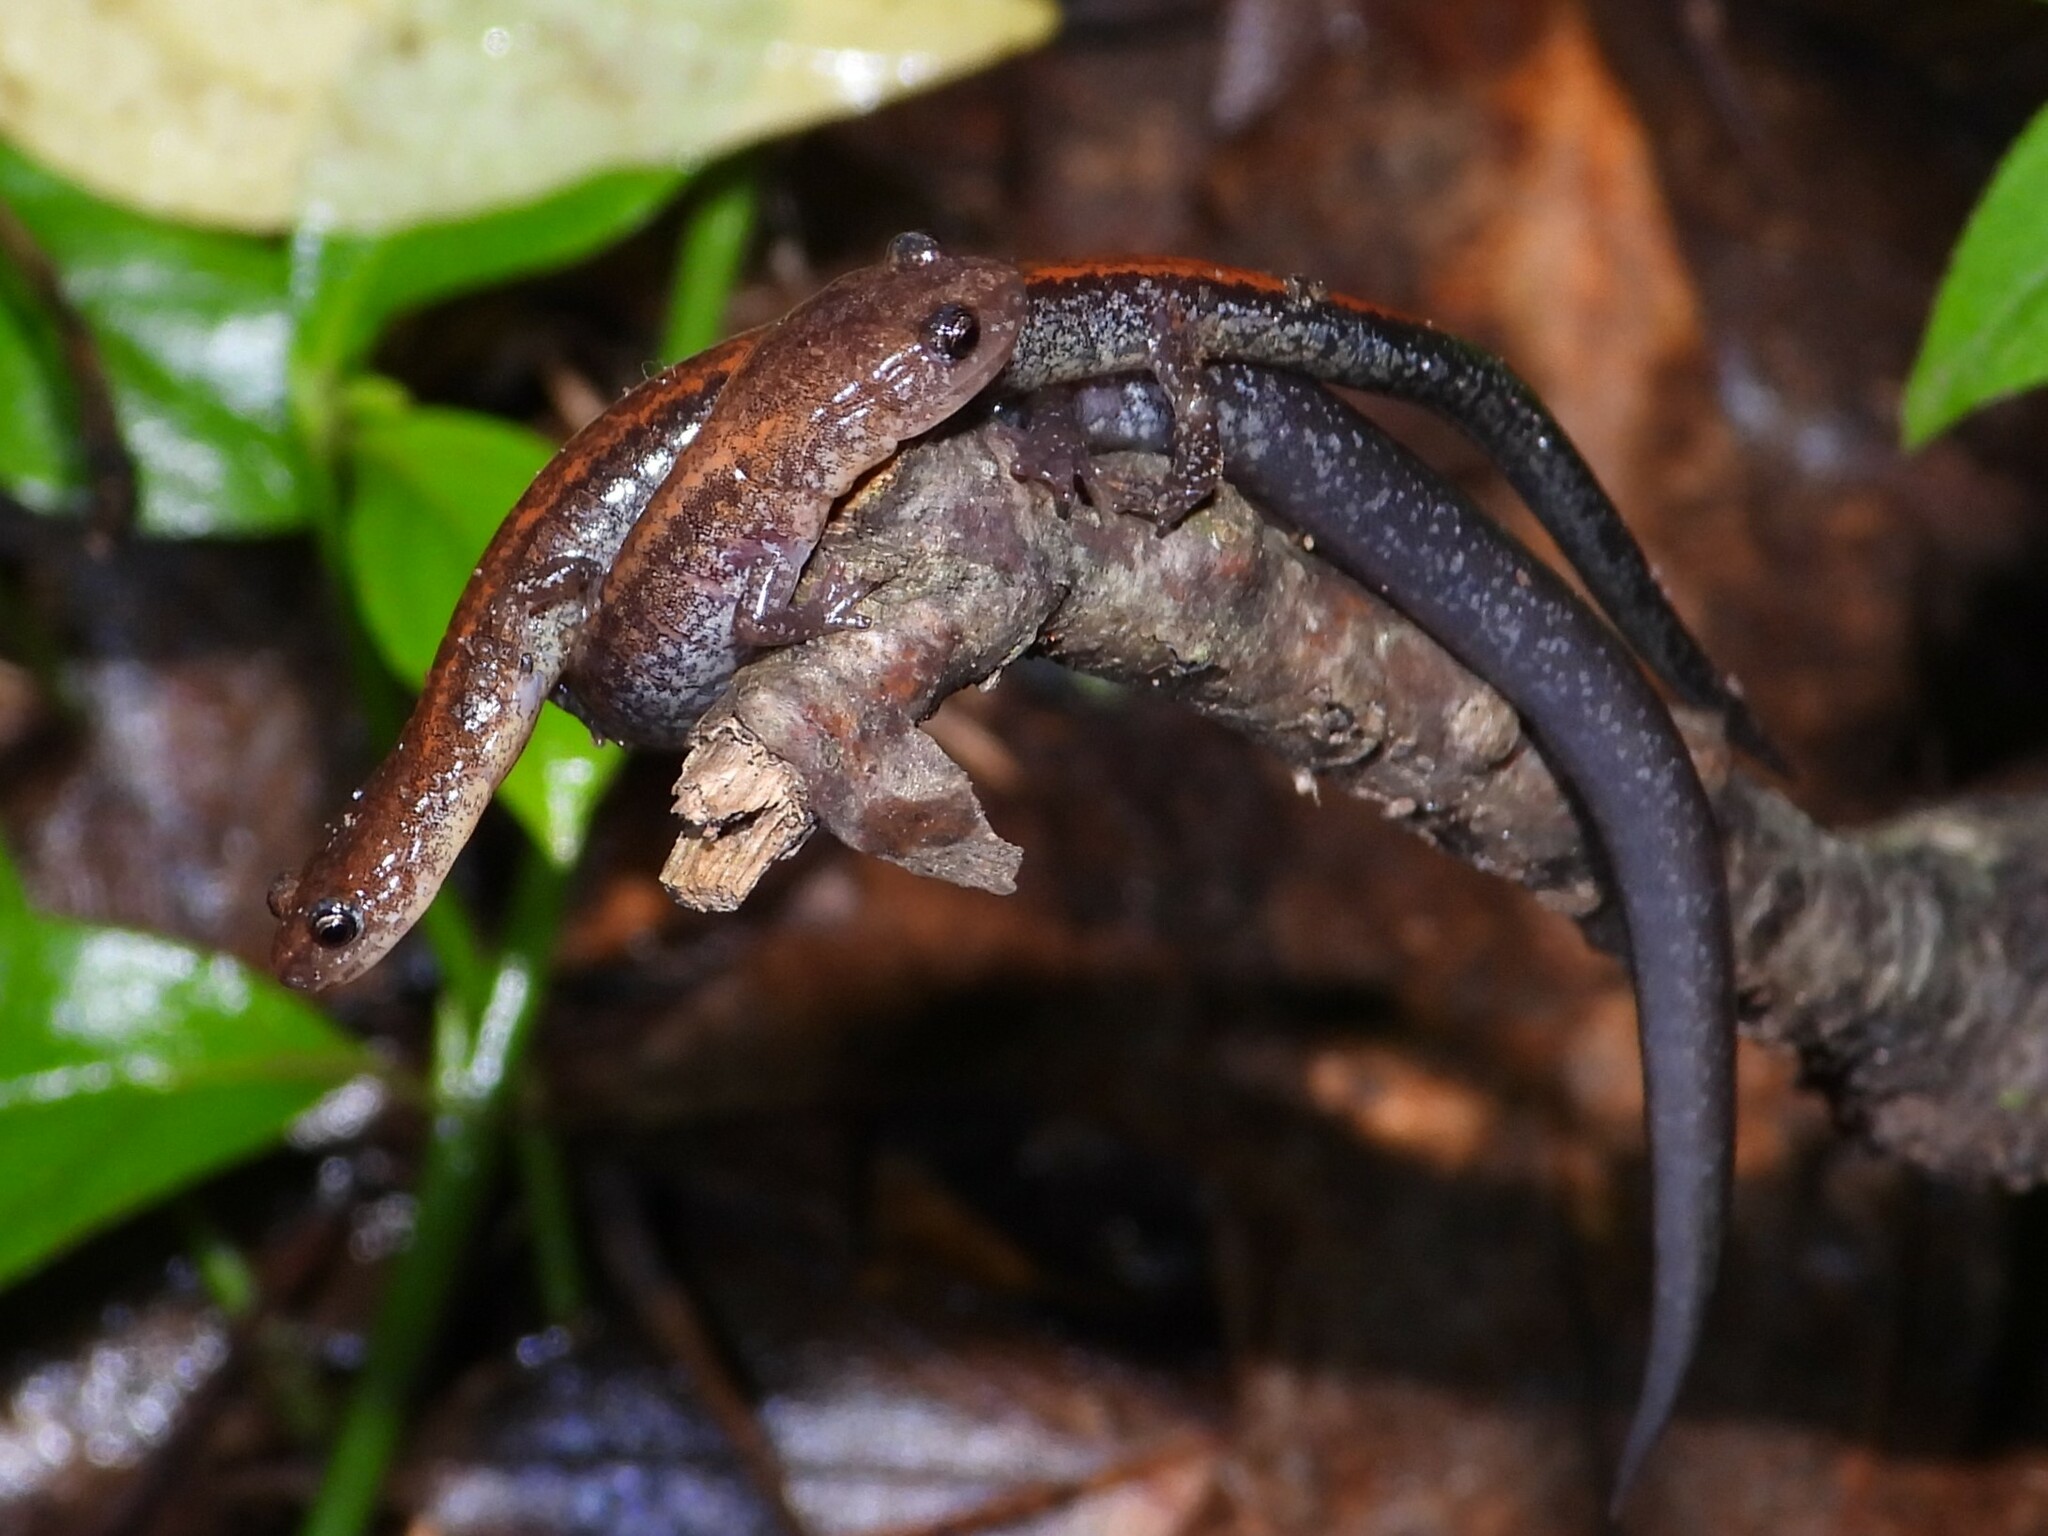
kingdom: Animalia
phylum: Chordata
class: Amphibia
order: Caudata
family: Plethodontidae
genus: Plethodon
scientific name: Plethodon cinereus
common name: Redback salamander
